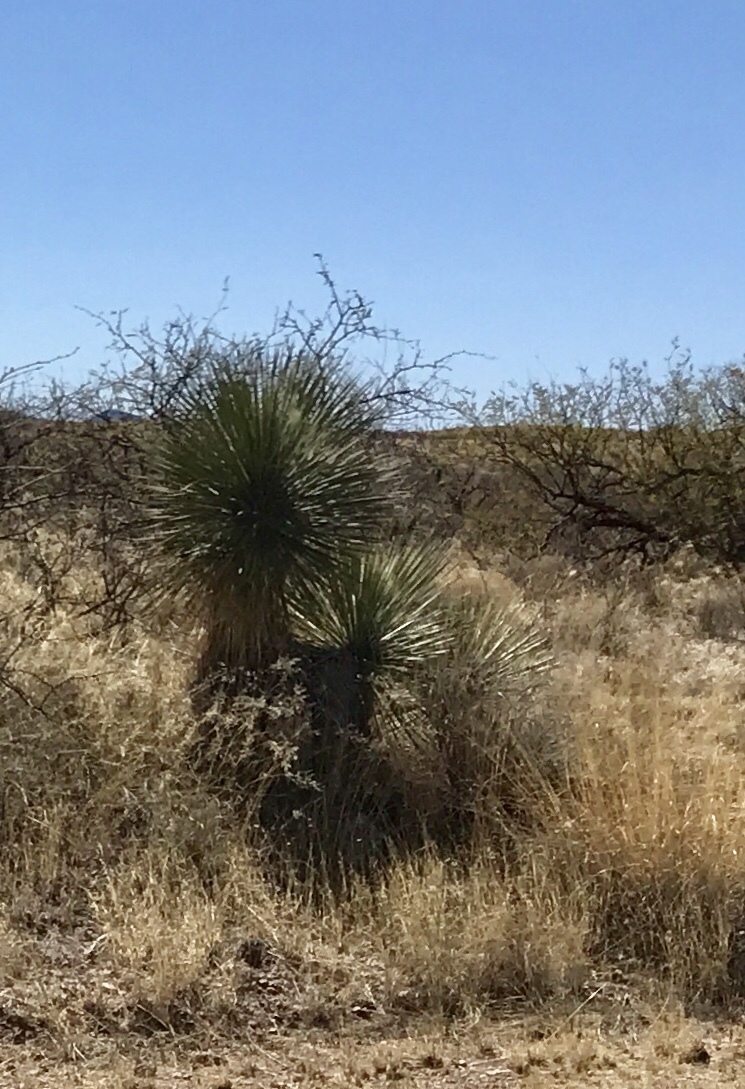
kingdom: Plantae
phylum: Tracheophyta
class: Liliopsida
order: Asparagales
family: Asparagaceae
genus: Yucca
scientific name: Yucca elata
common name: Palmella
